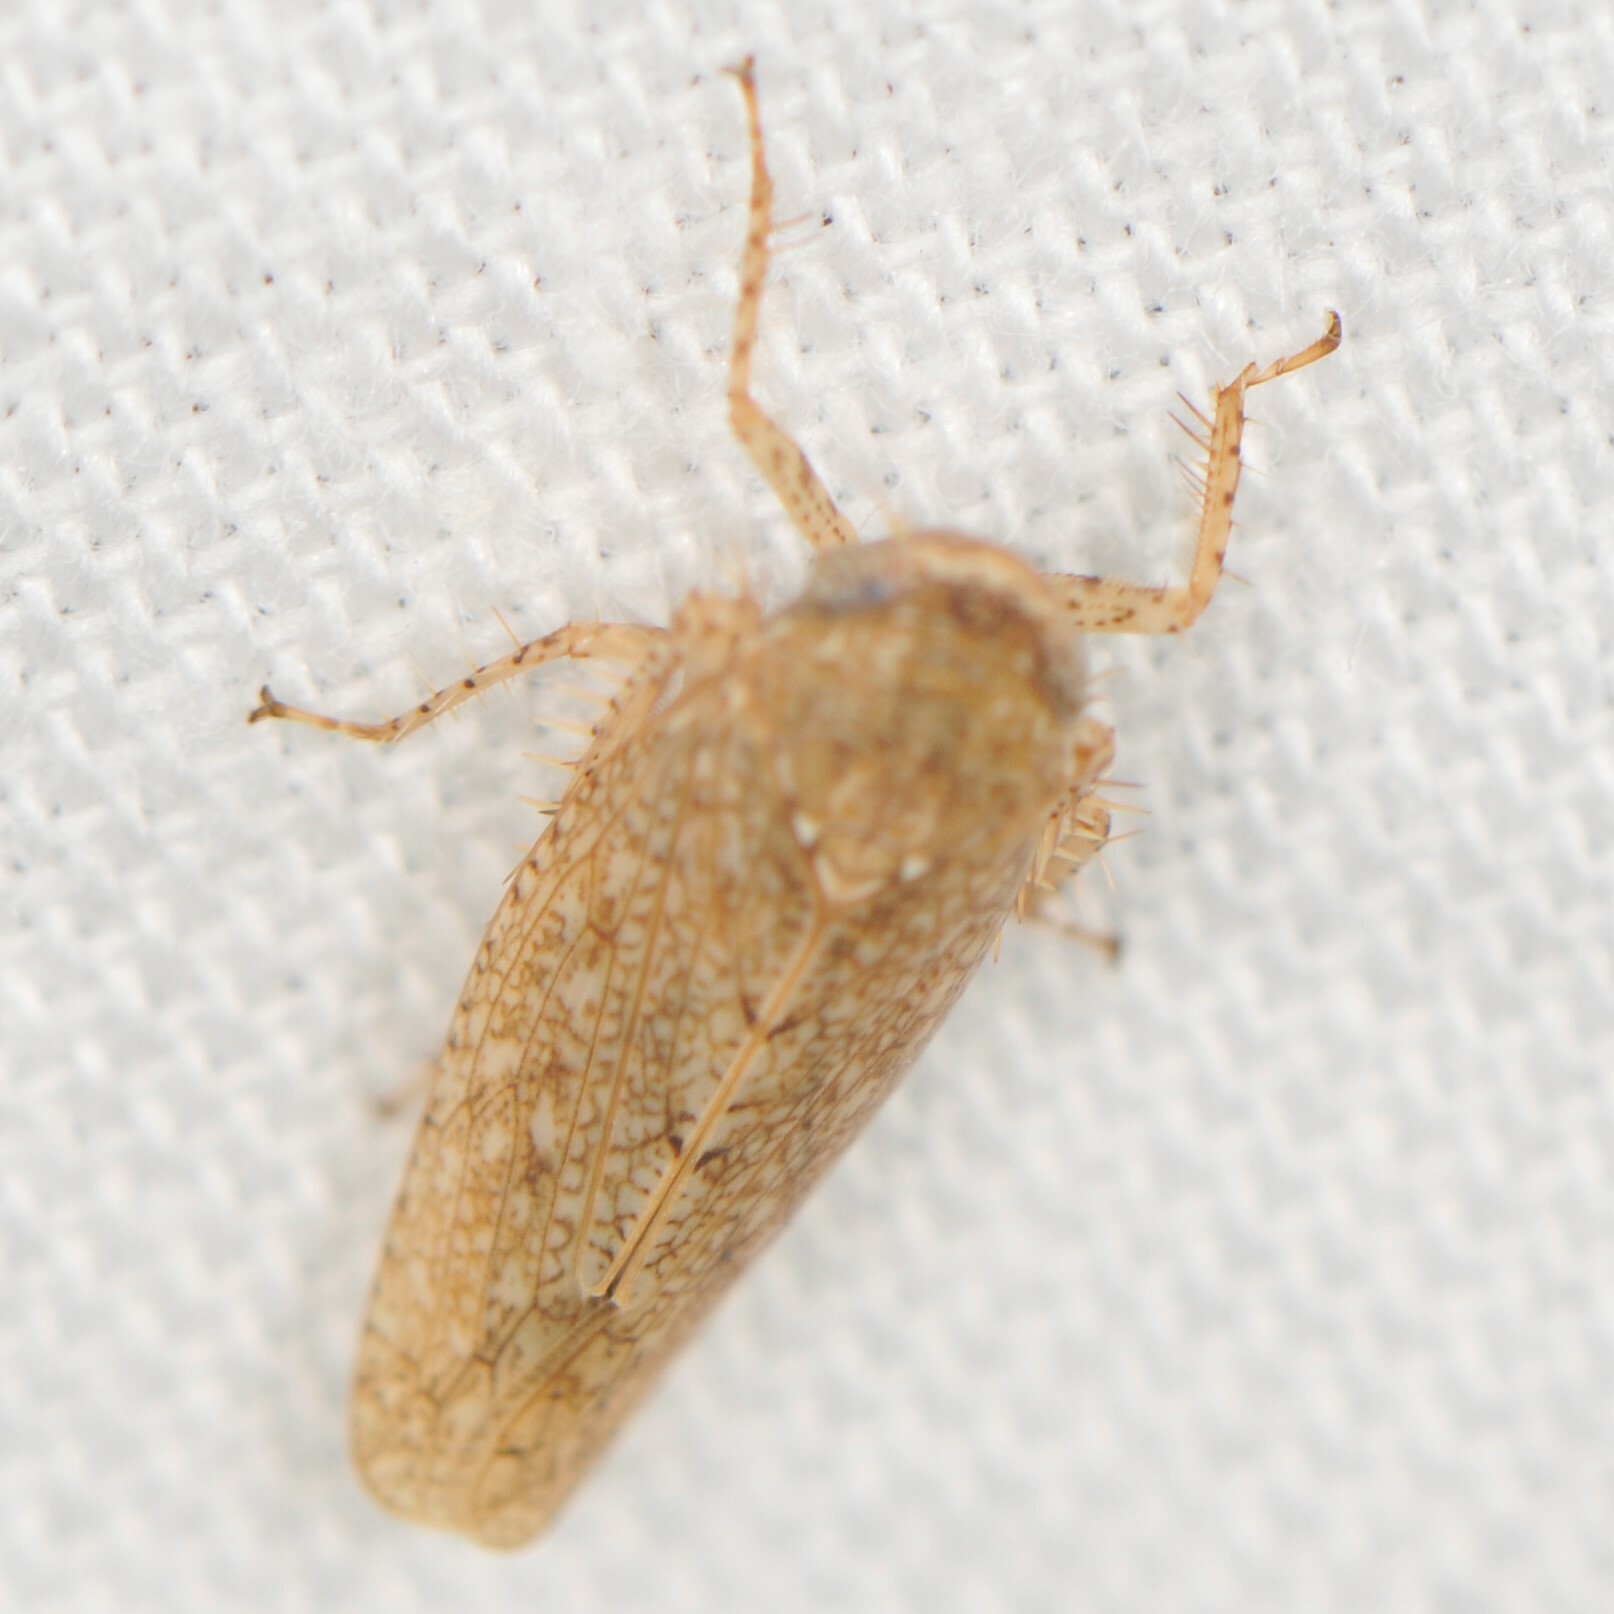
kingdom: Animalia
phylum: Arthropoda
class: Insecta
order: Hemiptera
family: Cicadellidae
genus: Texananus
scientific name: Texananus
